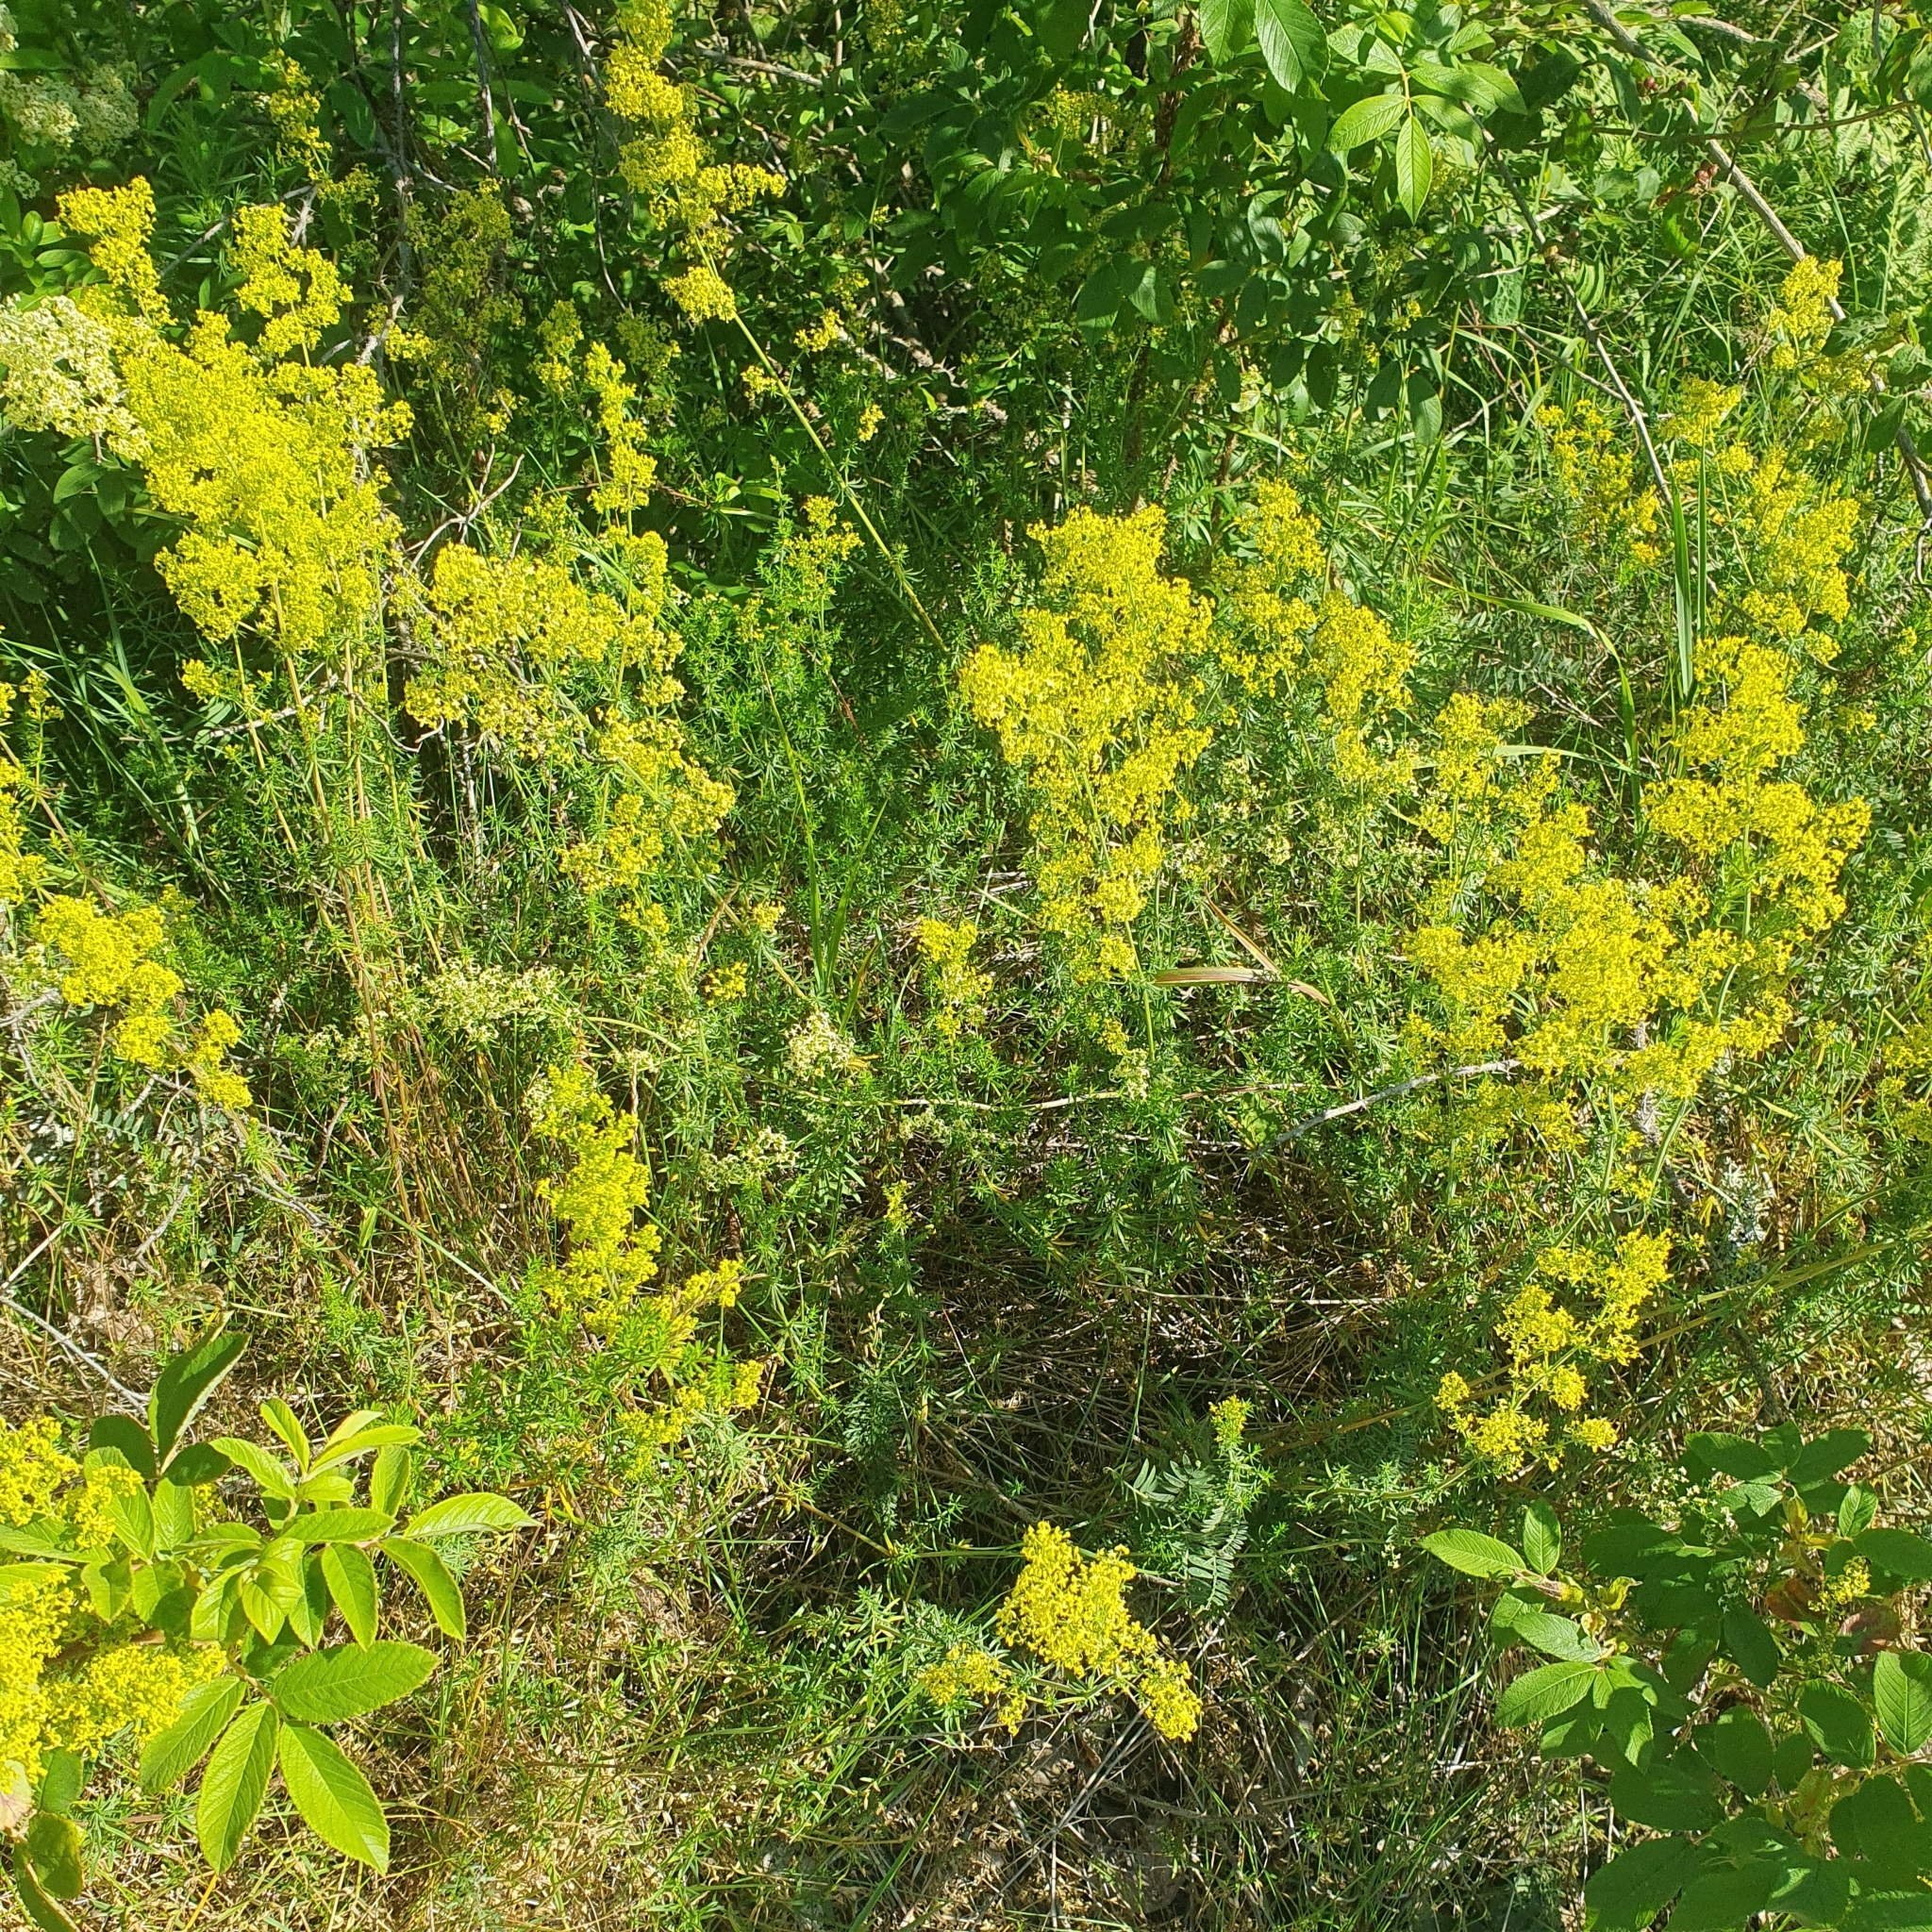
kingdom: Plantae
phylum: Tracheophyta
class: Magnoliopsida
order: Gentianales
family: Rubiaceae
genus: Galium
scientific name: Galium verum
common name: Lady's bedstraw
